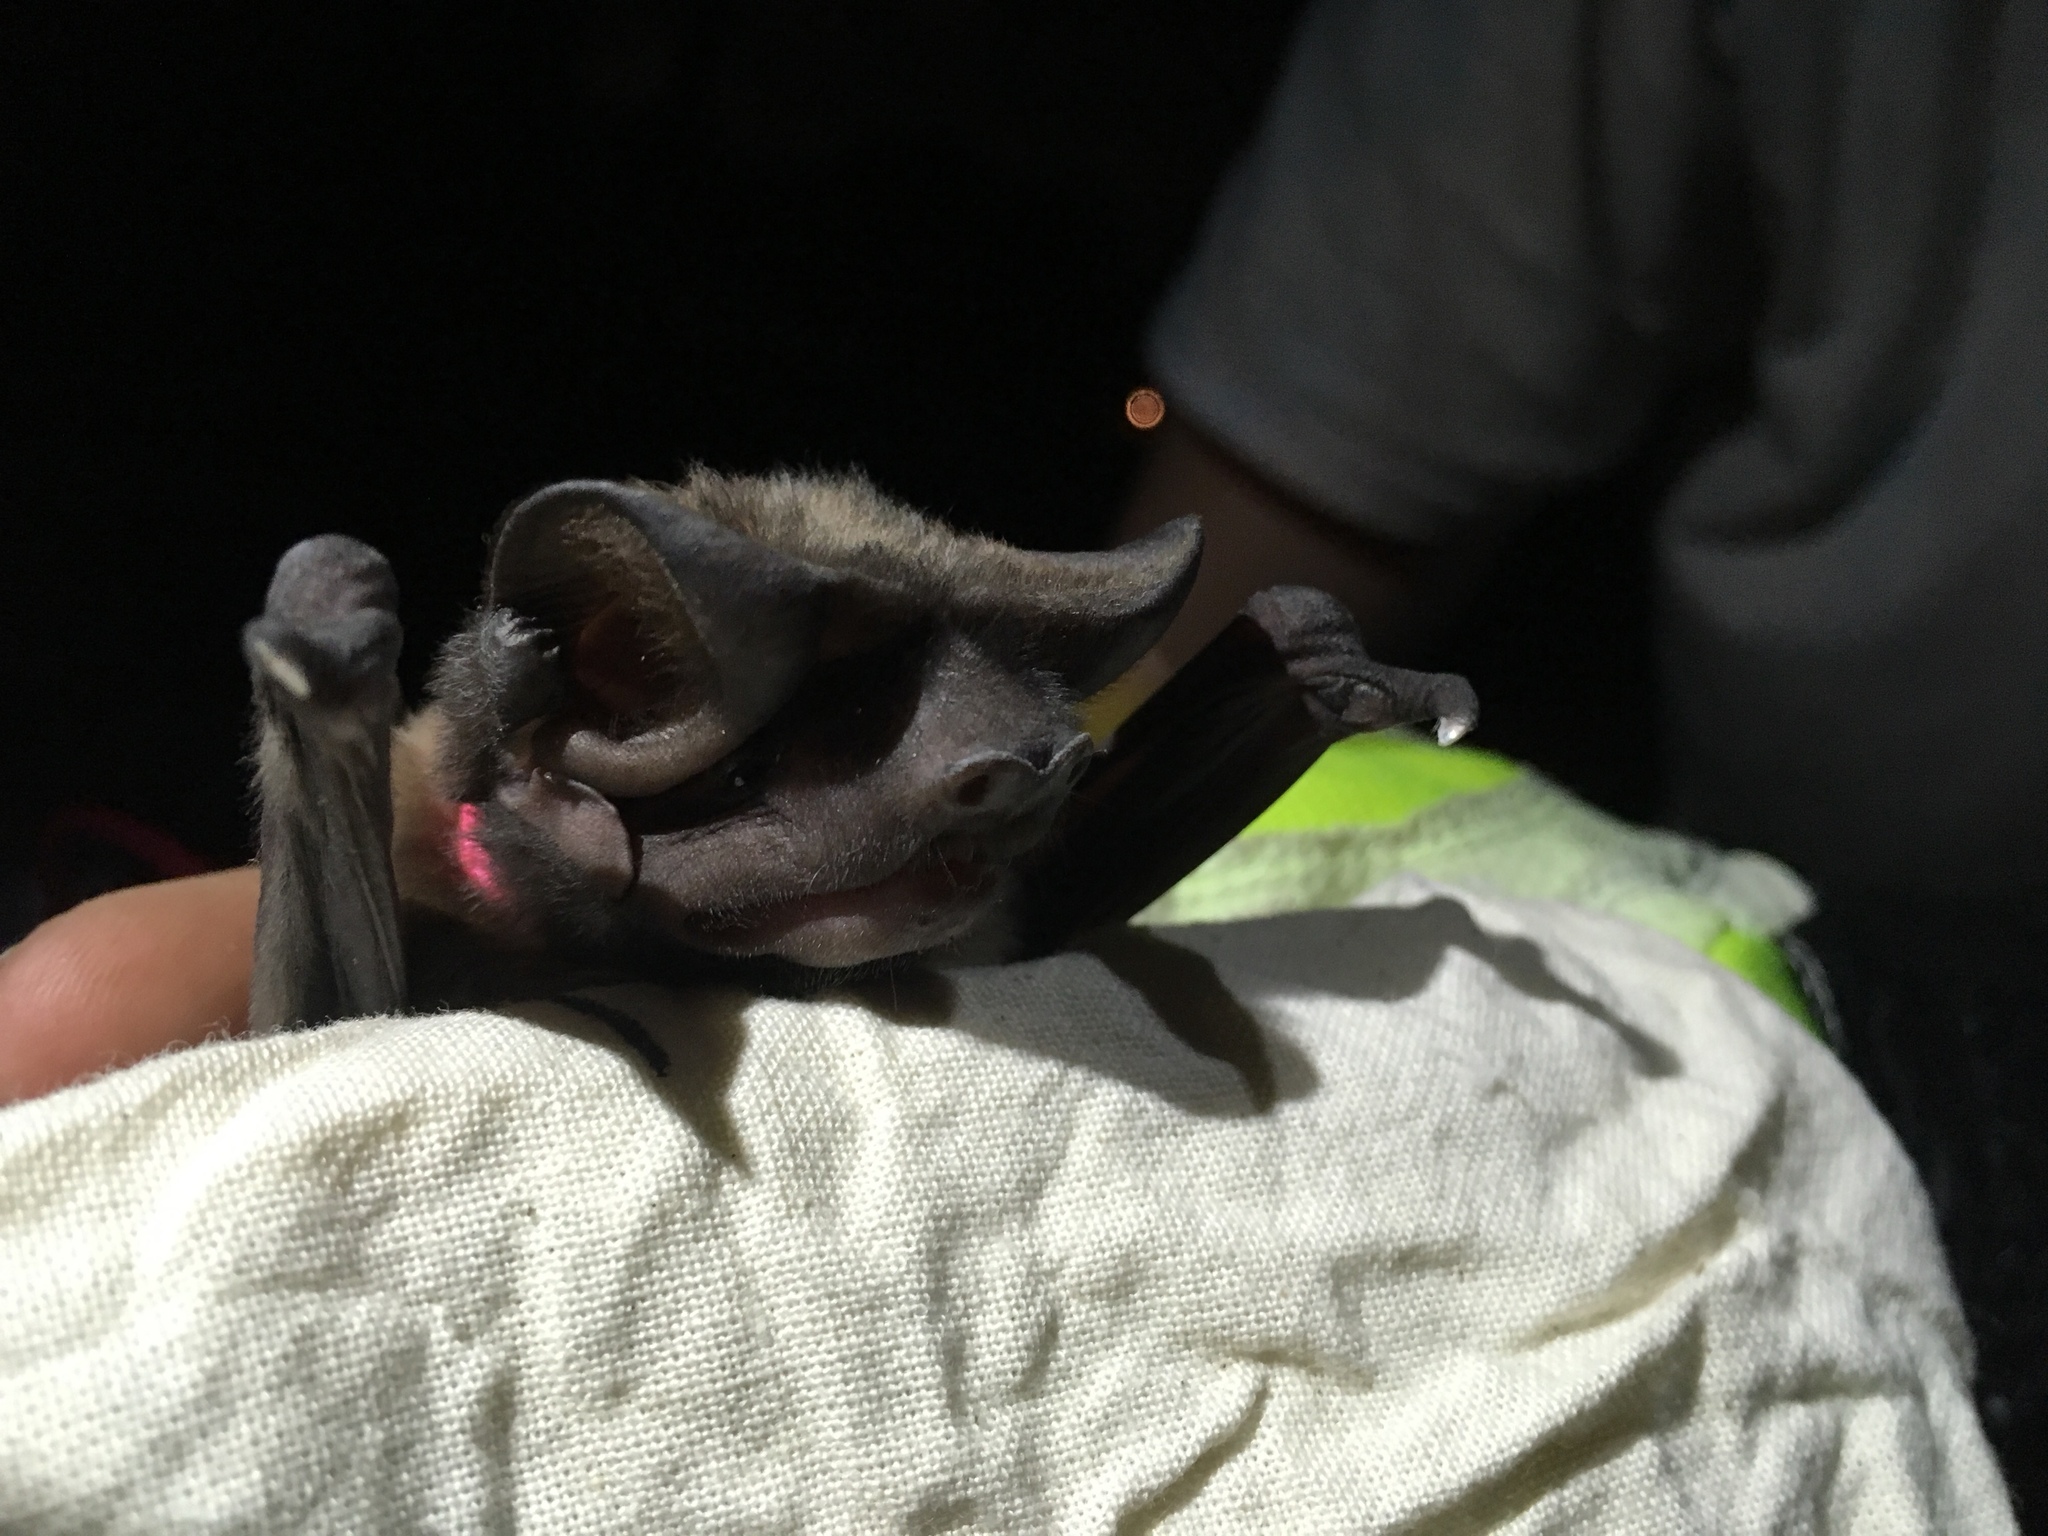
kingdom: Animalia
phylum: Chordata
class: Mammalia
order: Chiroptera
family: Molossidae
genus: Eumops
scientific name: Eumops floridanus
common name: Florida bonneted bat
